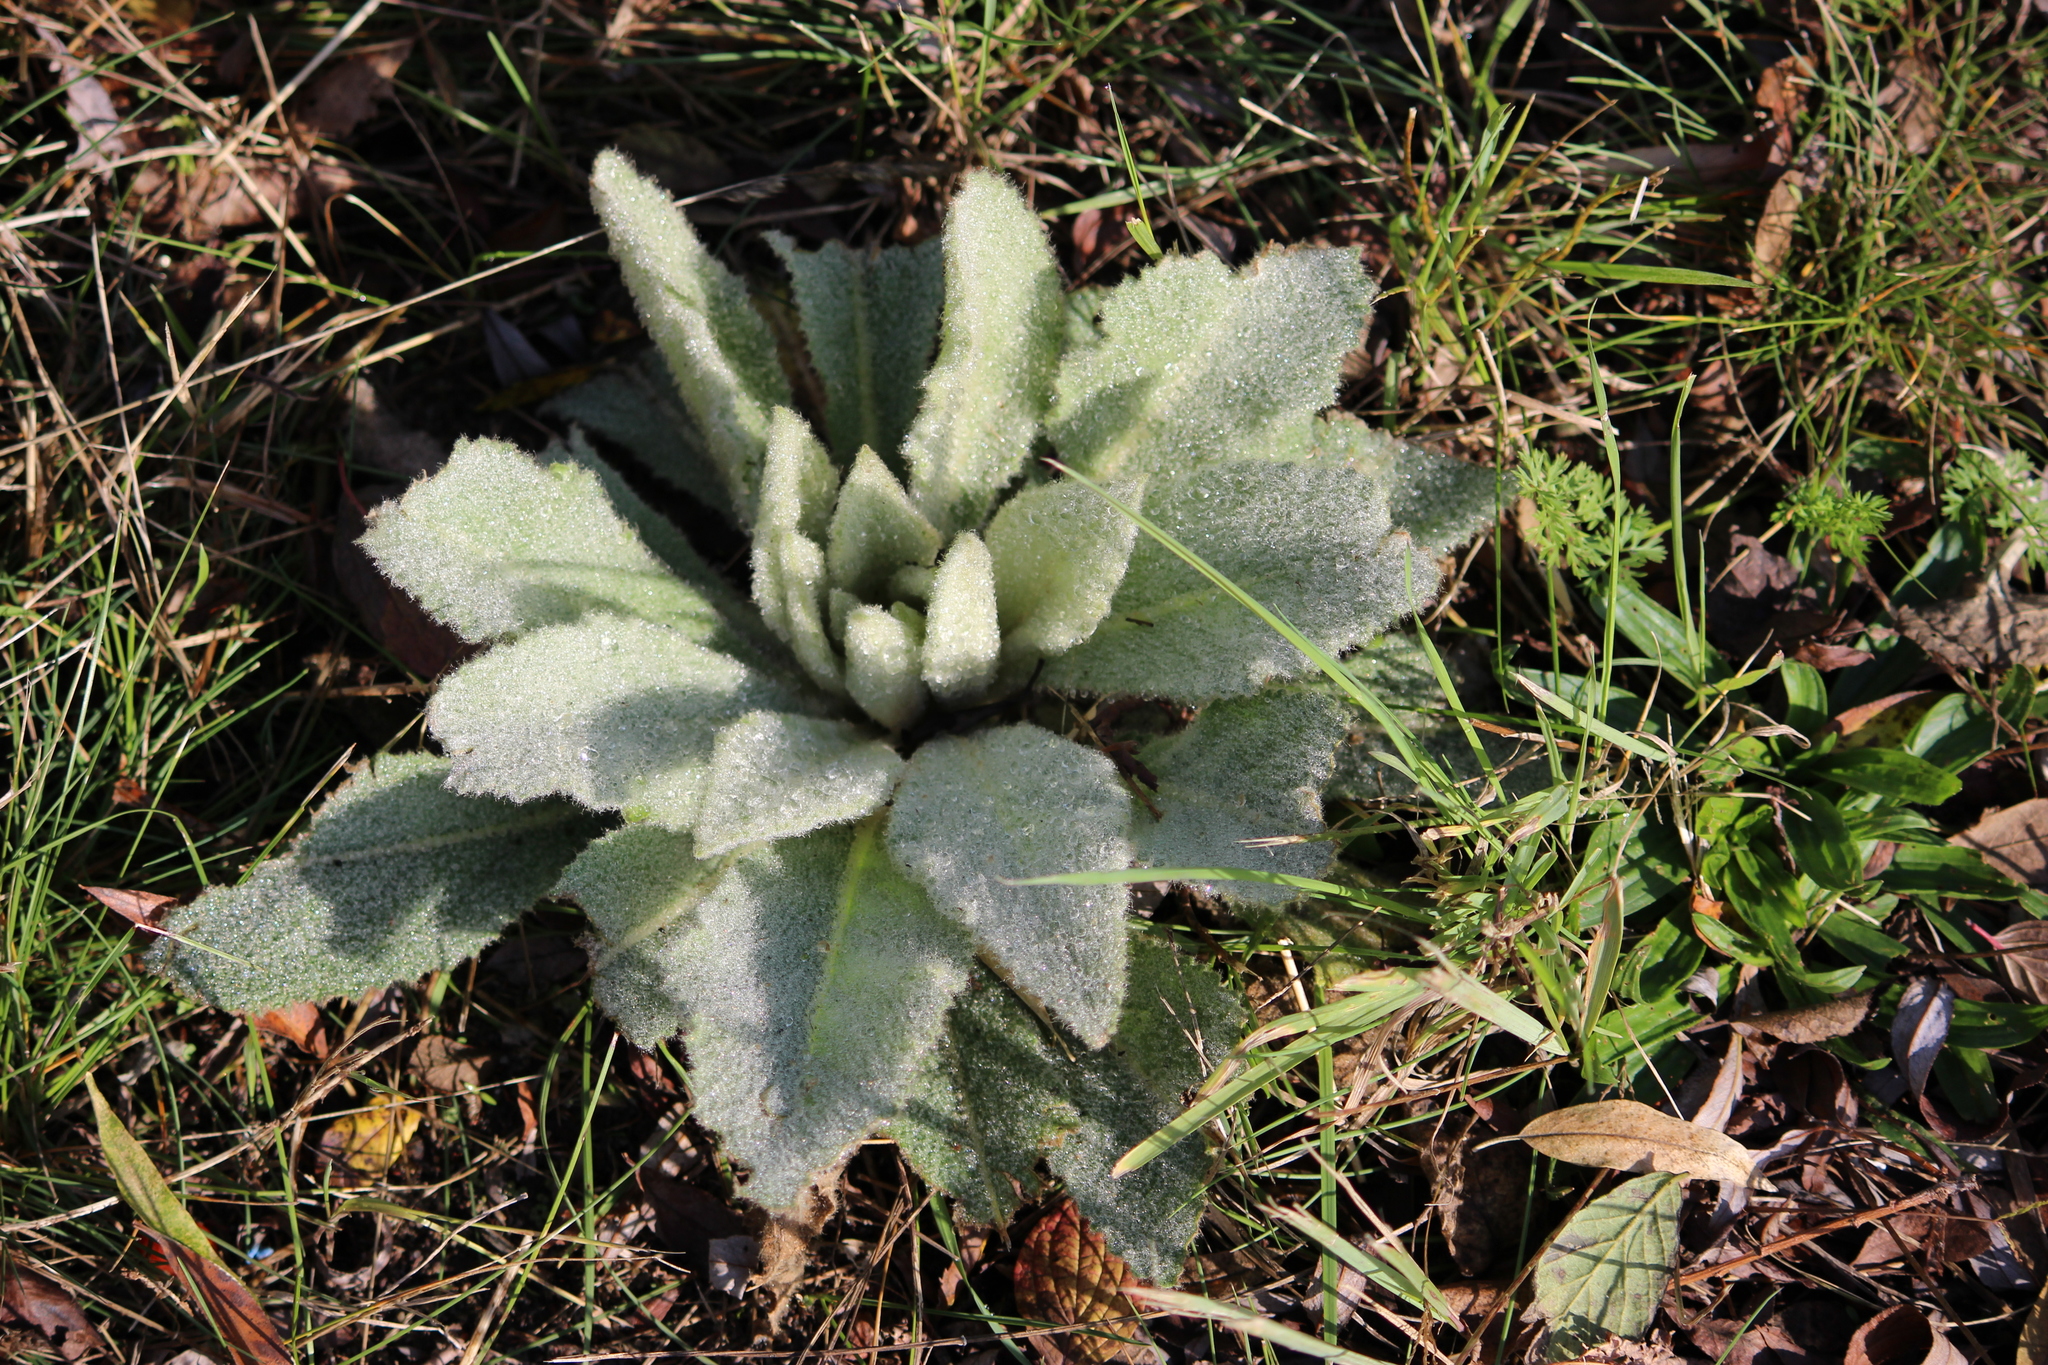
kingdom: Plantae
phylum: Tracheophyta
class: Magnoliopsida
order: Lamiales
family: Scrophulariaceae
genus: Verbascum
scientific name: Verbascum thapsus
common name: Common mullein
